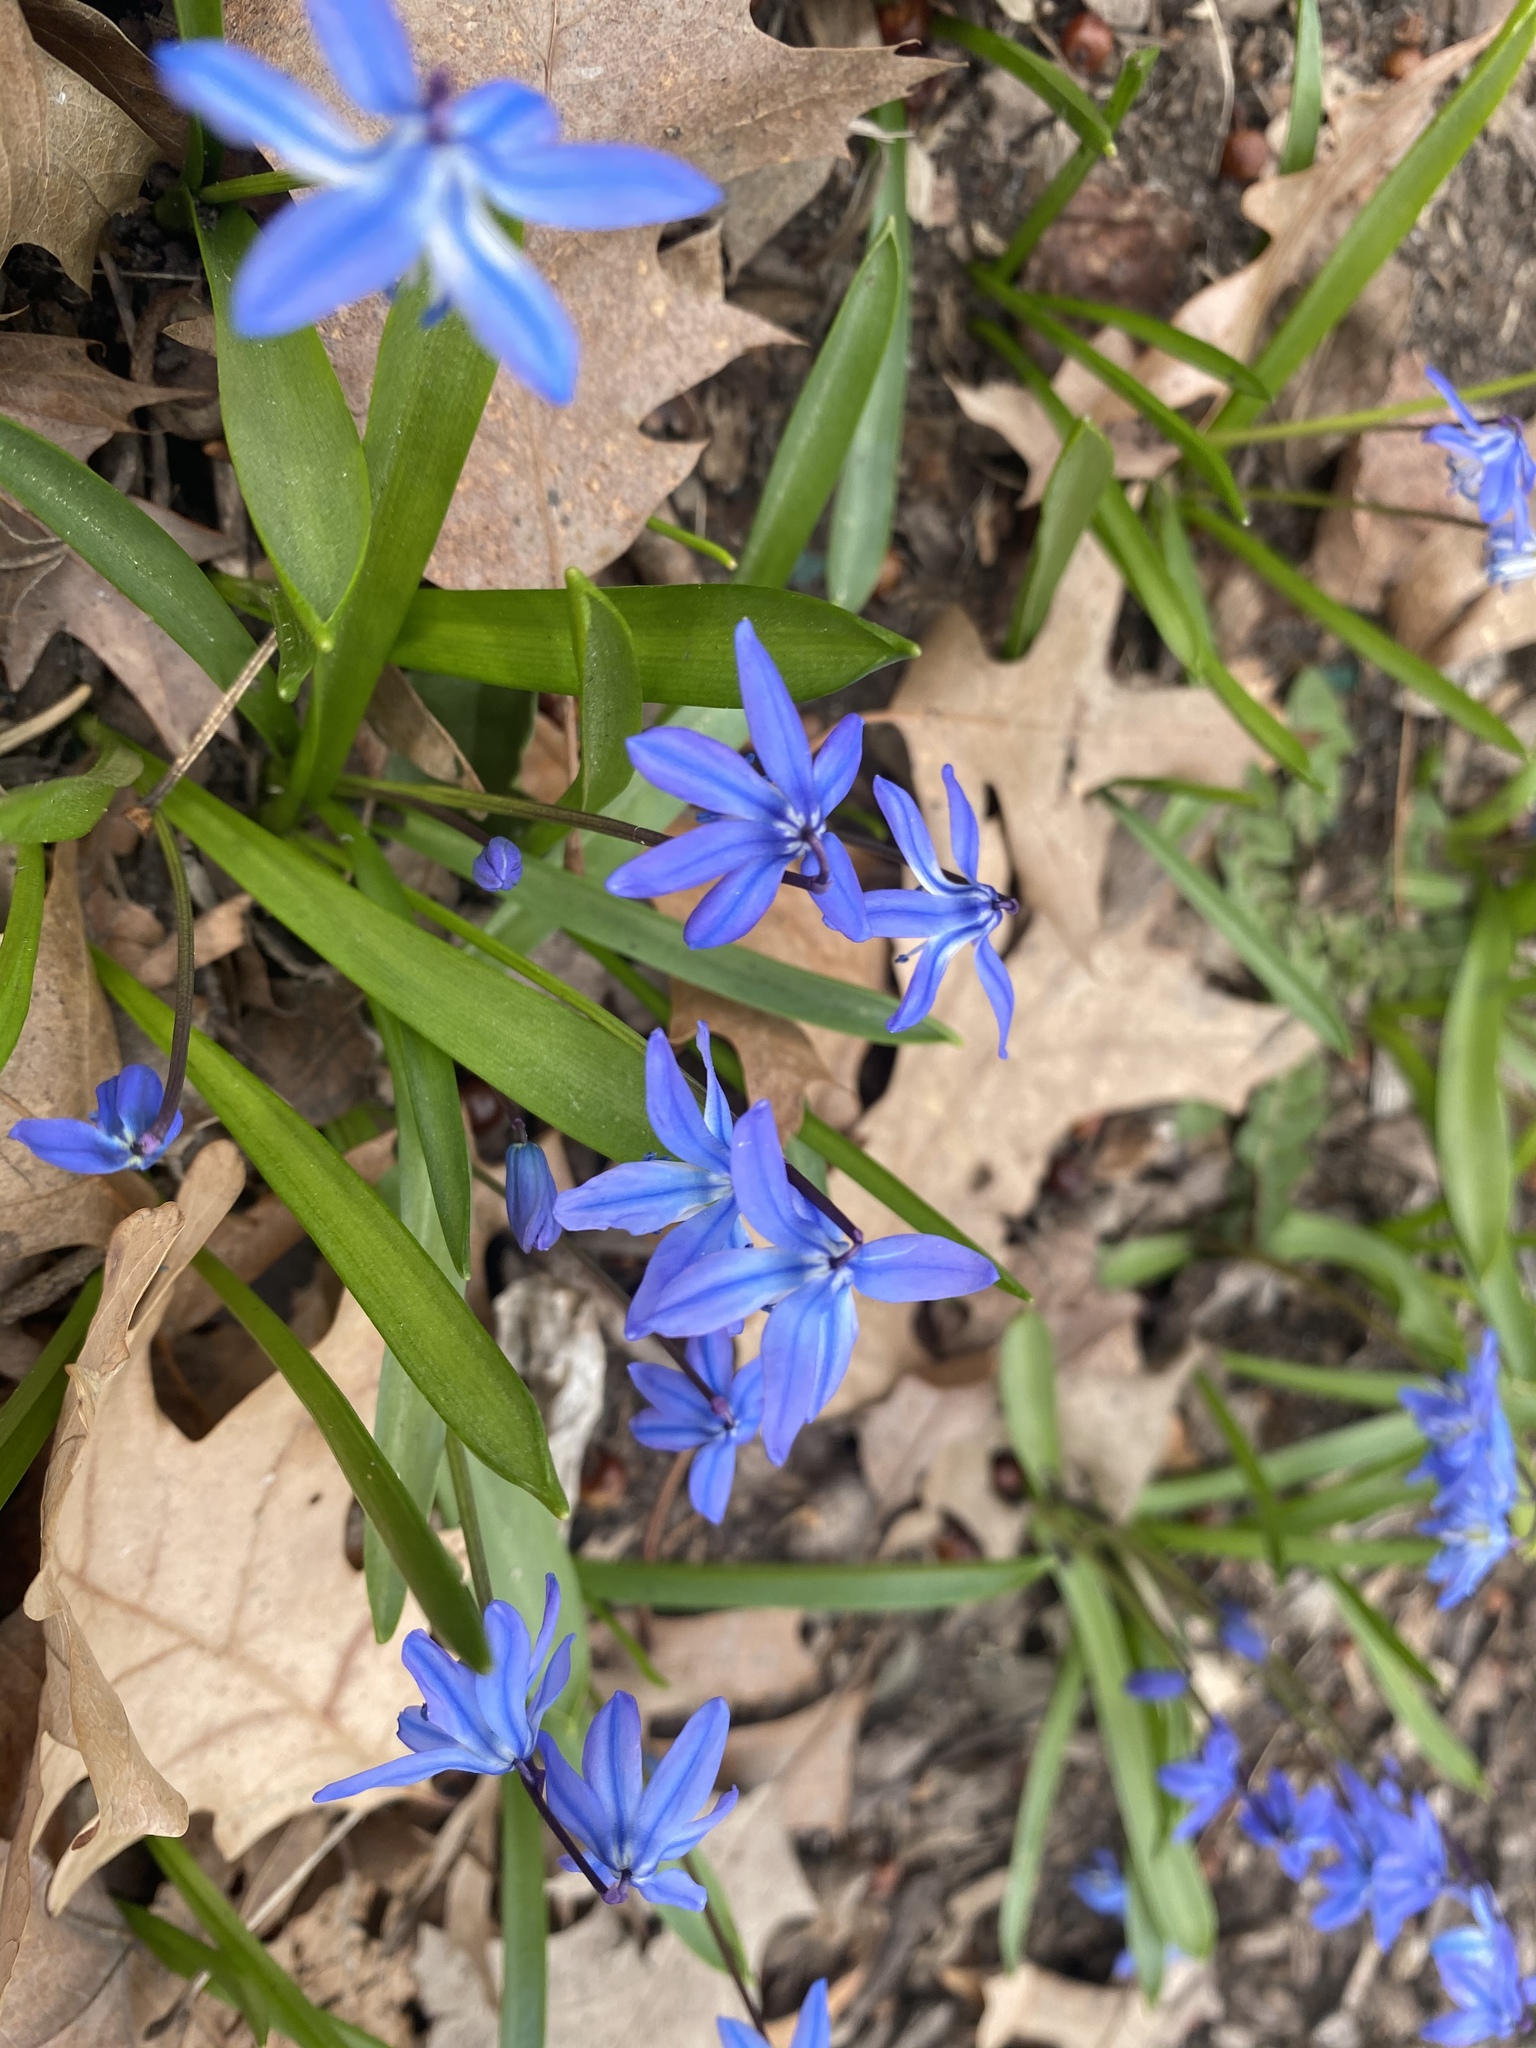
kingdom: Plantae
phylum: Tracheophyta
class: Liliopsida
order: Asparagales
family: Asparagaceae
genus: Scilla
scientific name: Scilla siberica
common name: Siberian squill
